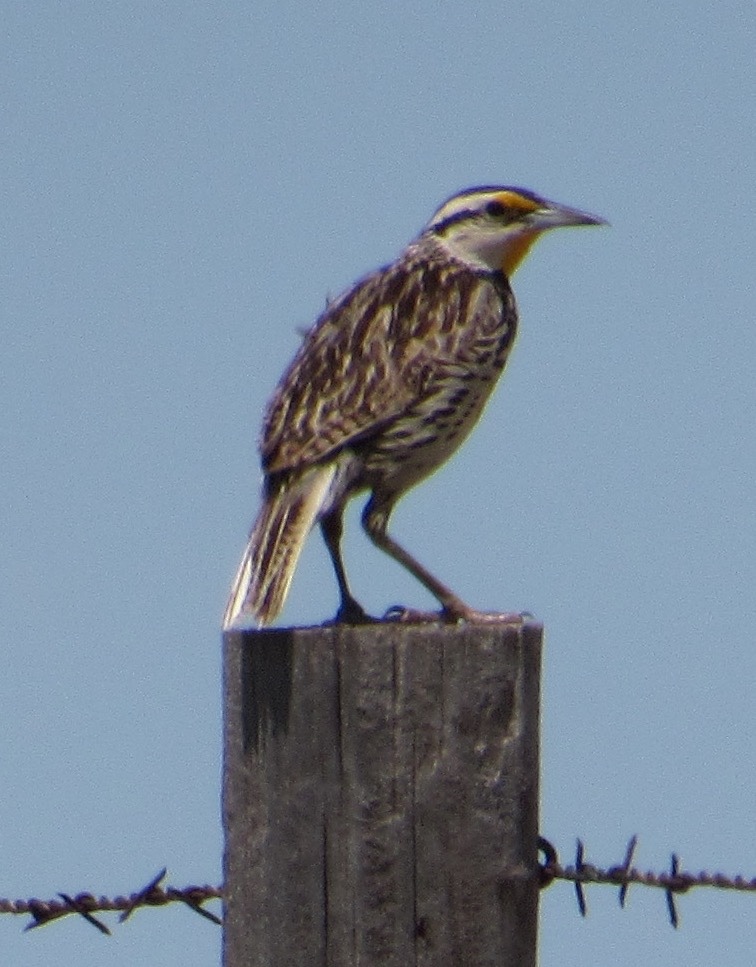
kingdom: Animalia
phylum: Chordata
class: Aves
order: Passeriformes
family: Icteridae
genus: Sturnella
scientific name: Sturnella magna
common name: Eastern meadowlark
